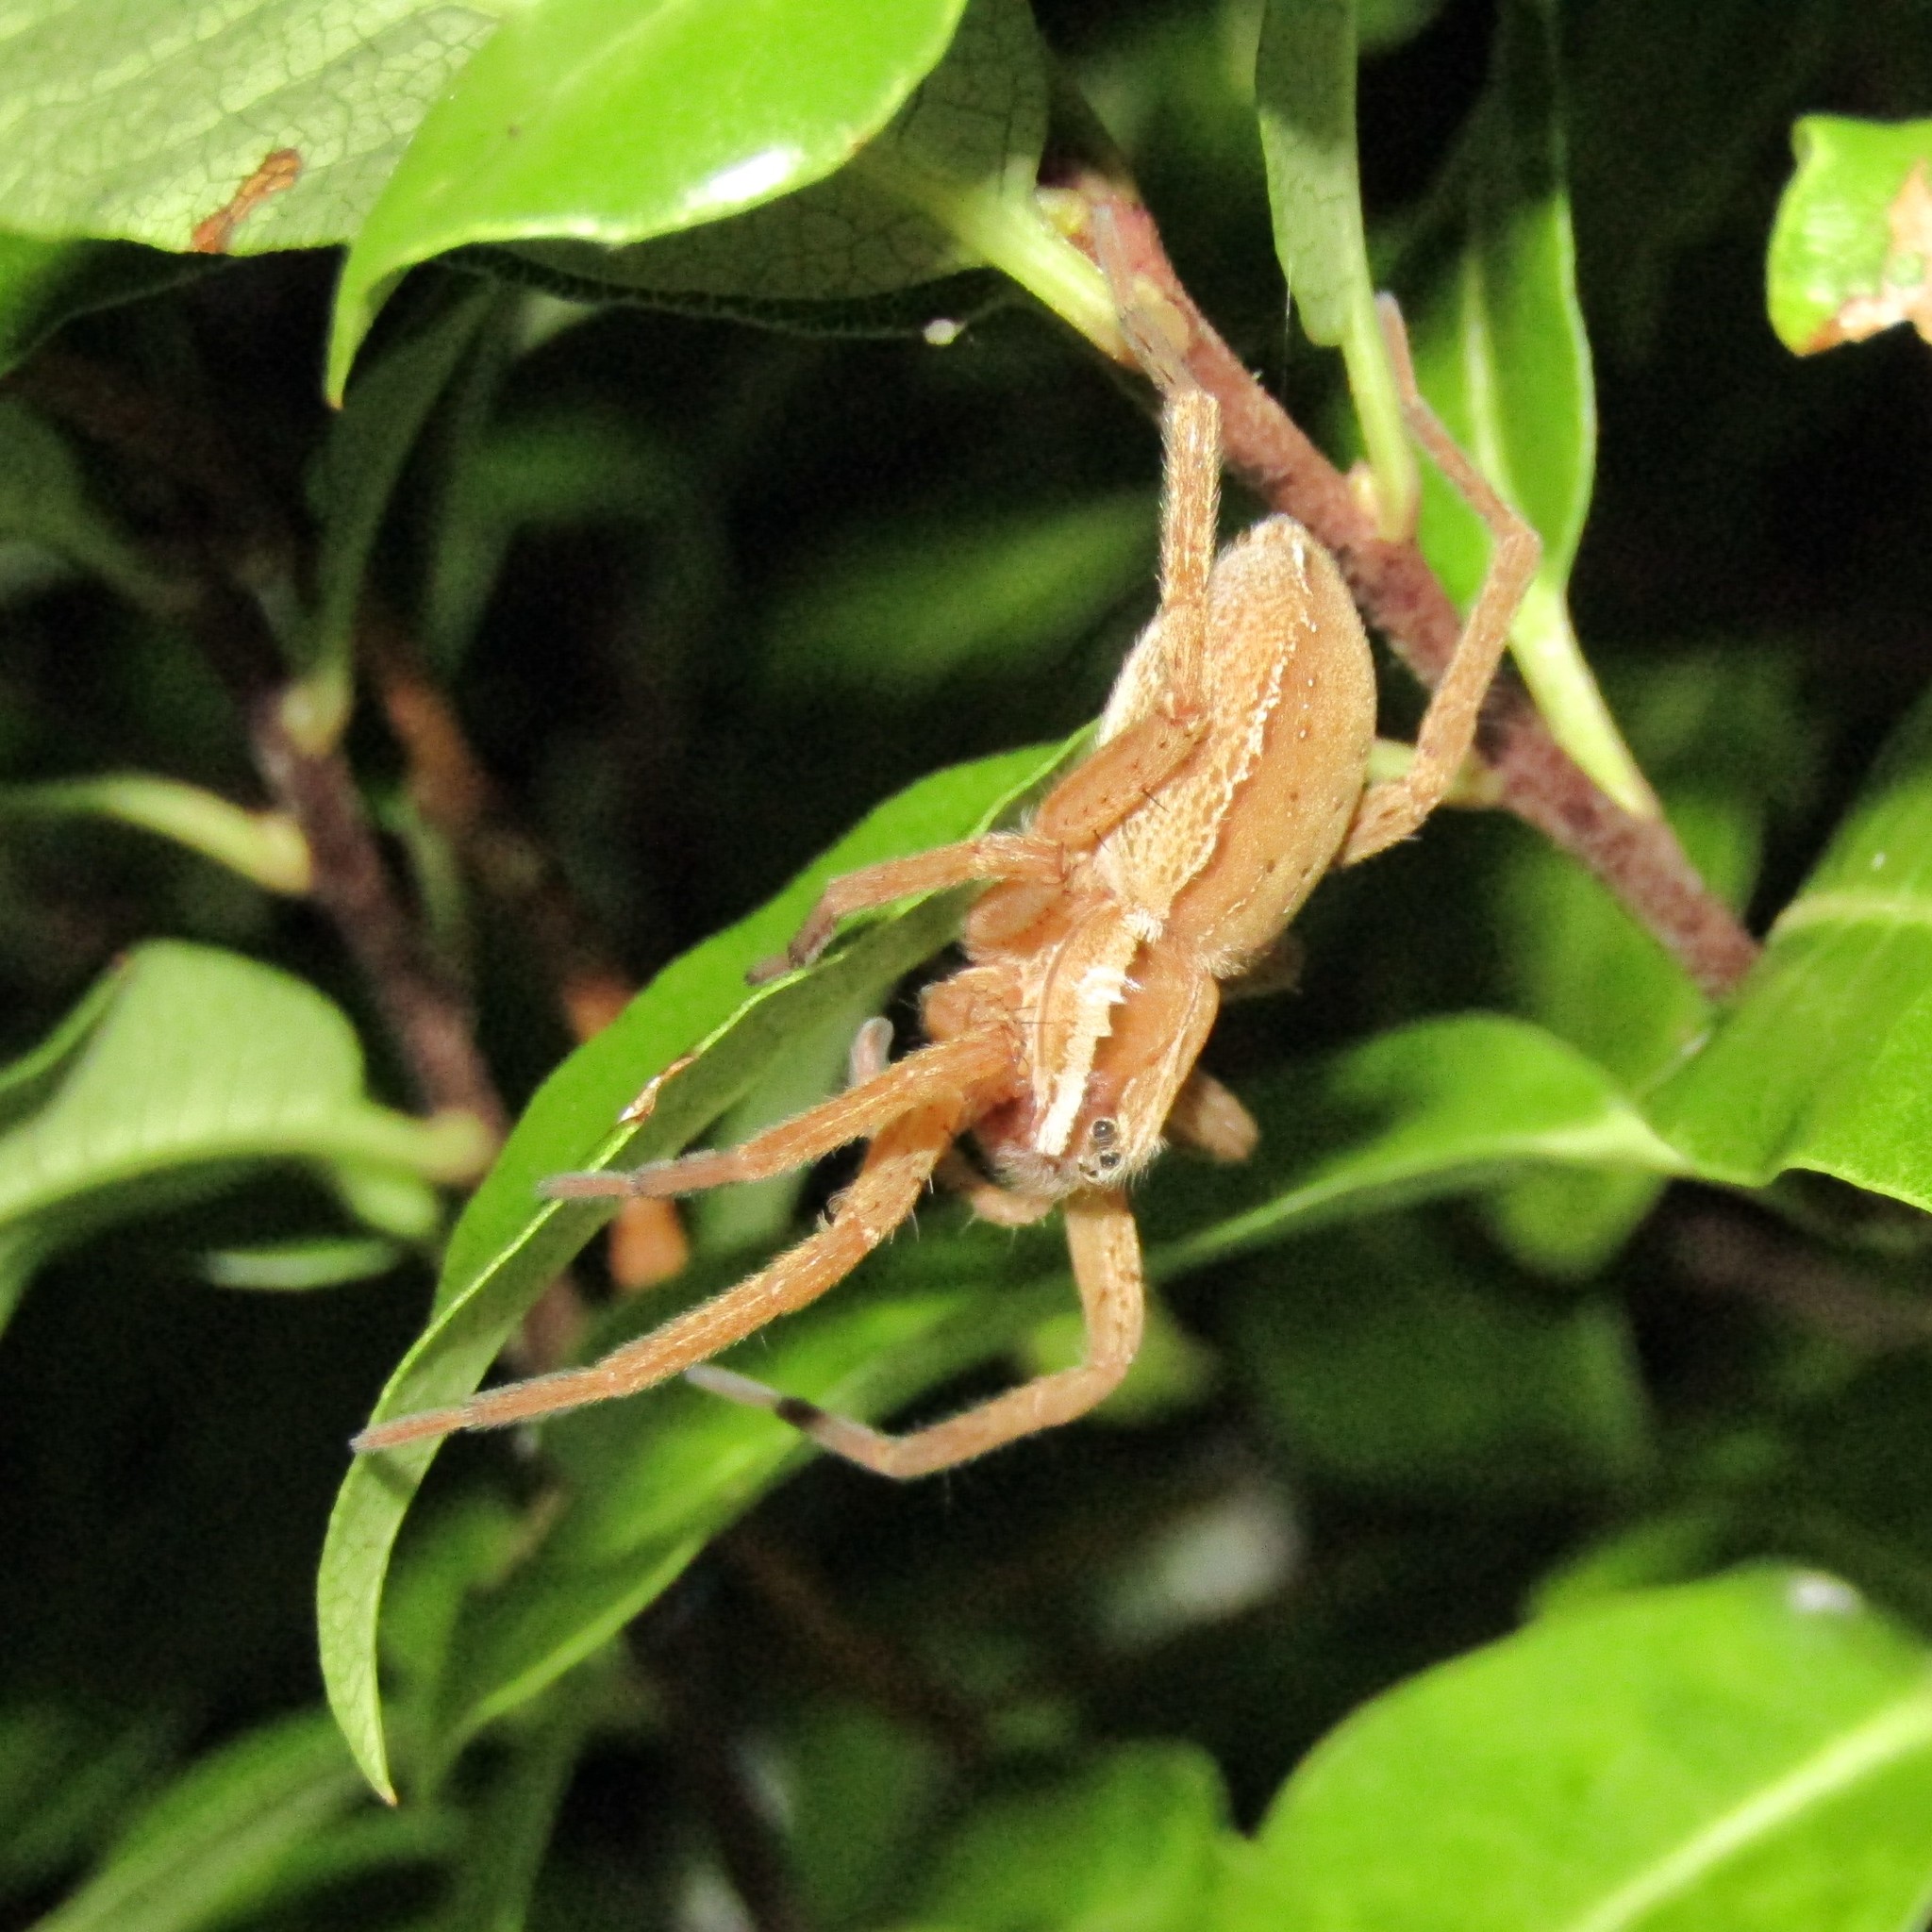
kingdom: Animalia
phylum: Arthropoda
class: Arachnida
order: Araneae
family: Pisauridae
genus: Dolomedes
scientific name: Dolomedes minor
